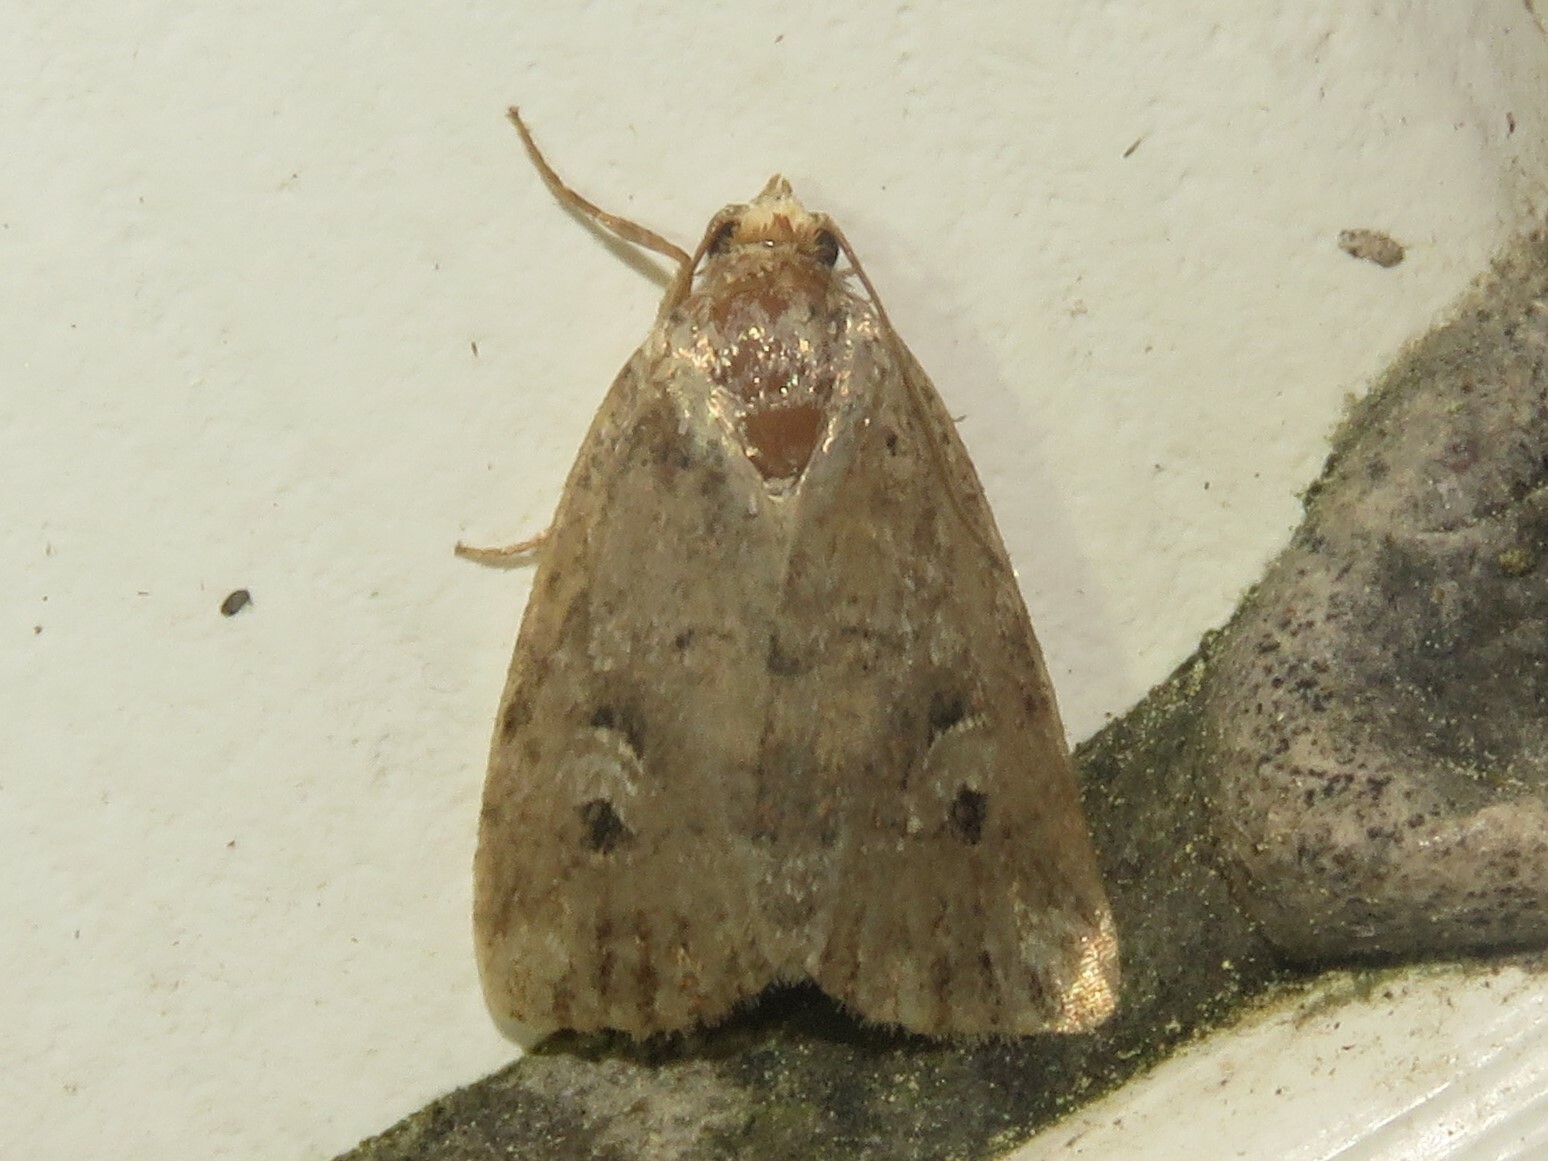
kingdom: Animalia
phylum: Arthropoda
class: Insecta
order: Lepidoptera
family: Noctuidae
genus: Elaphria
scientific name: Elaphria alapallida
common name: Pale-winged midget
